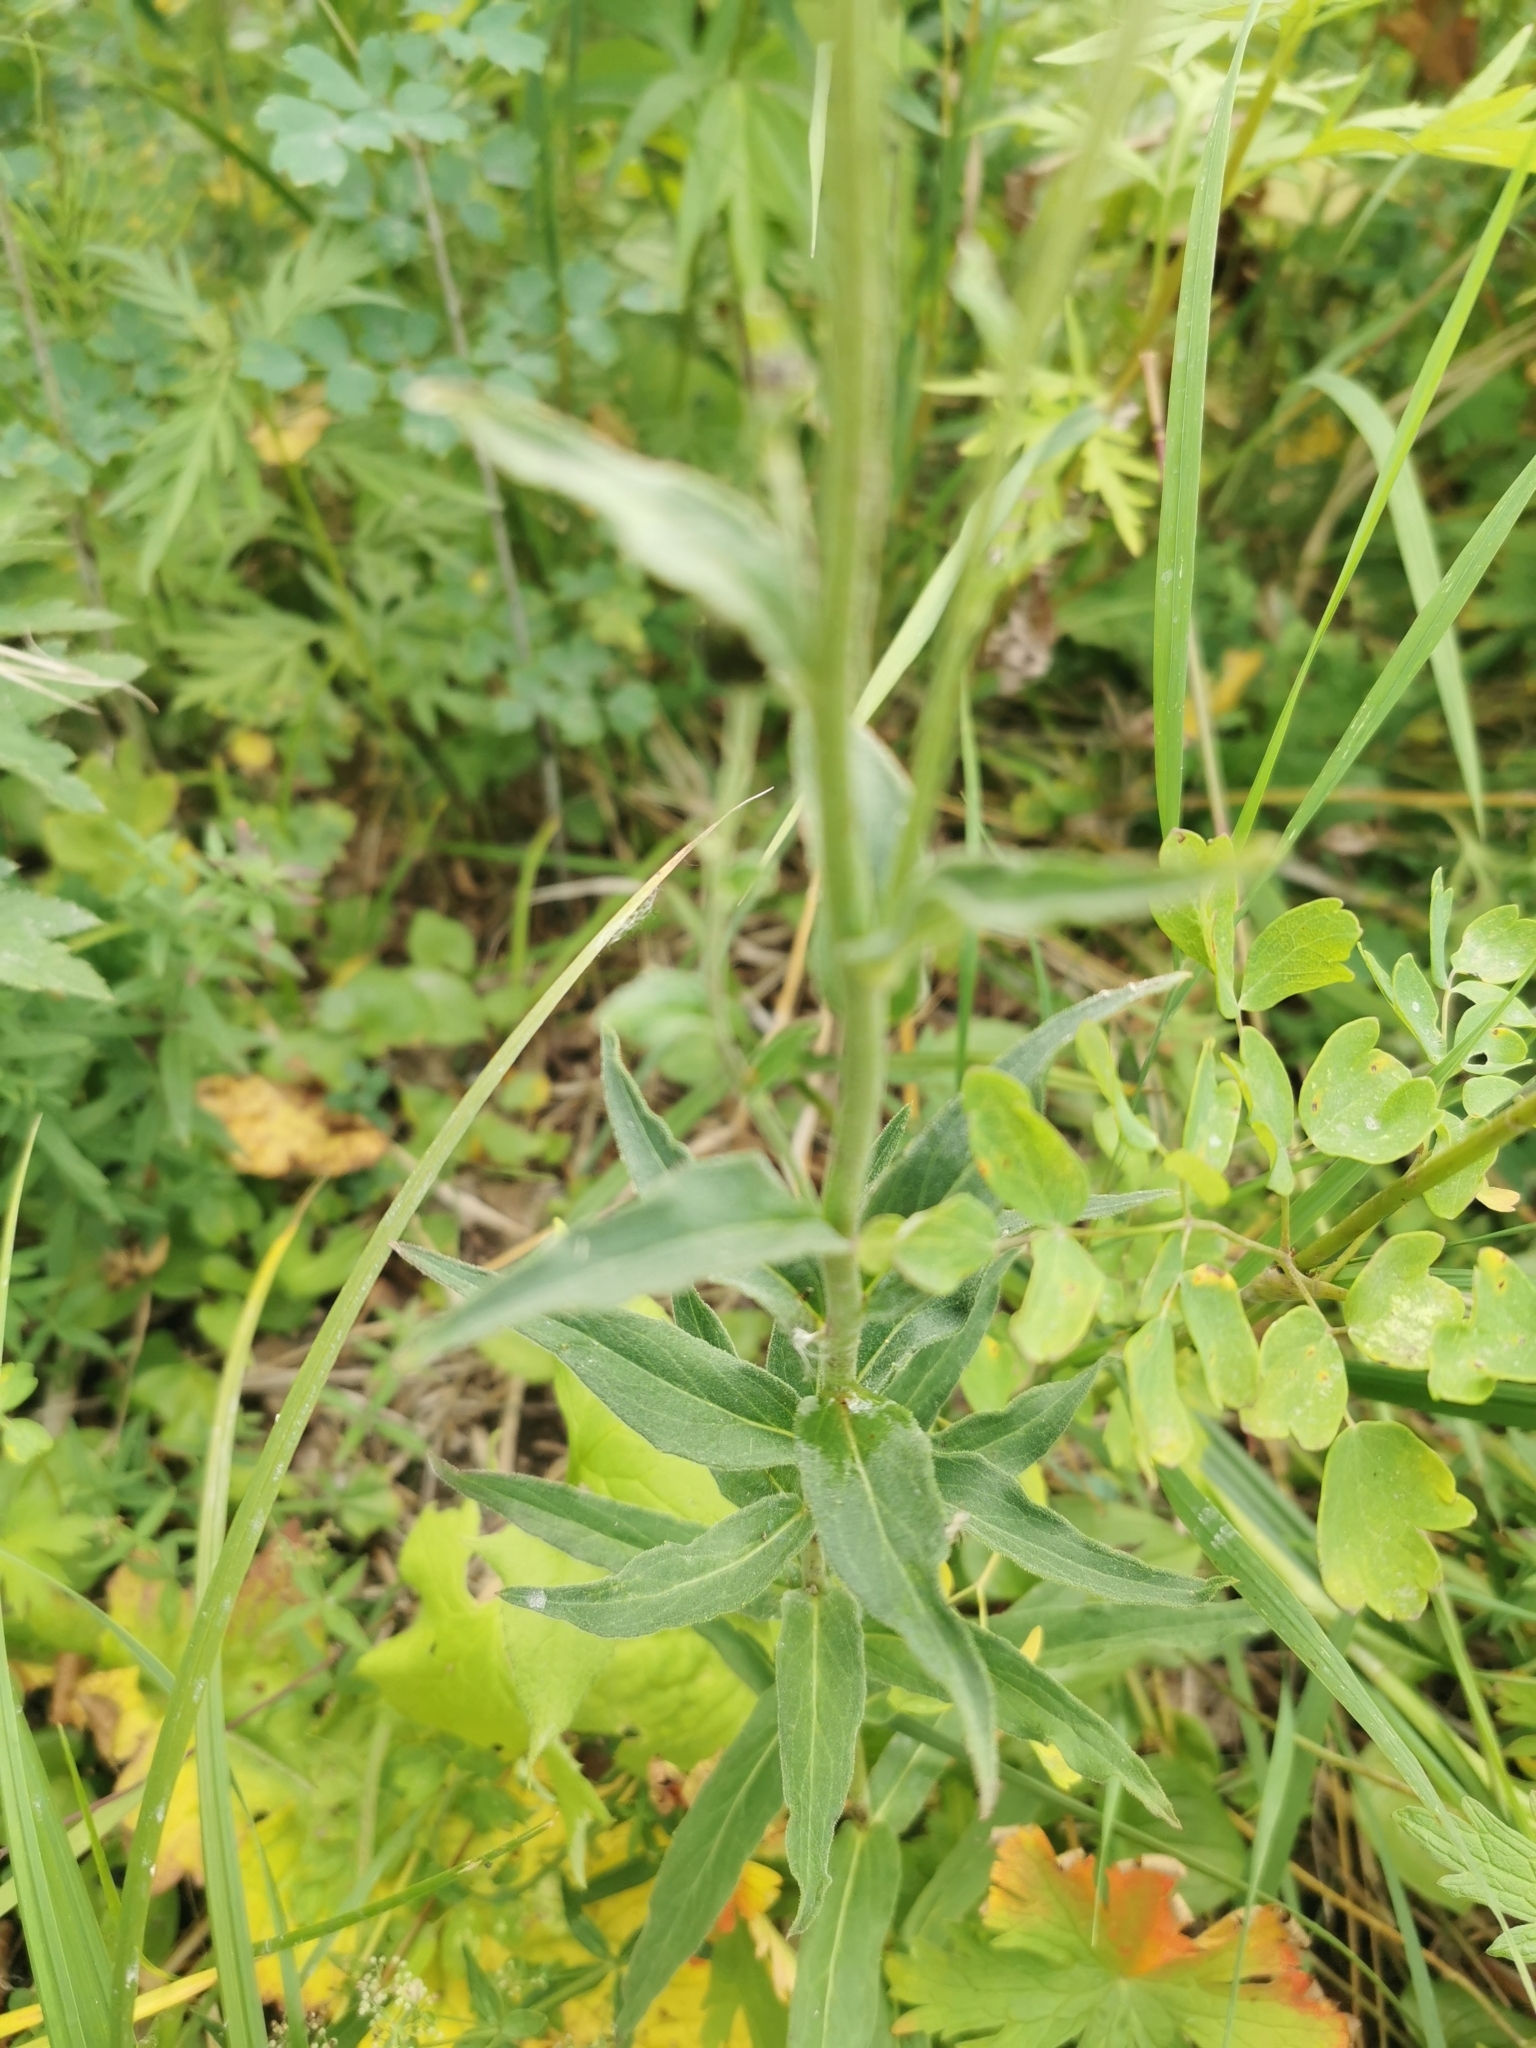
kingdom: Plantae
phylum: Tracheophyta
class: Magnoliopsida
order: Asterales
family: Asteraceae
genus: Hieracium
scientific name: Hieracium umbellatum
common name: Northern hawkweed
